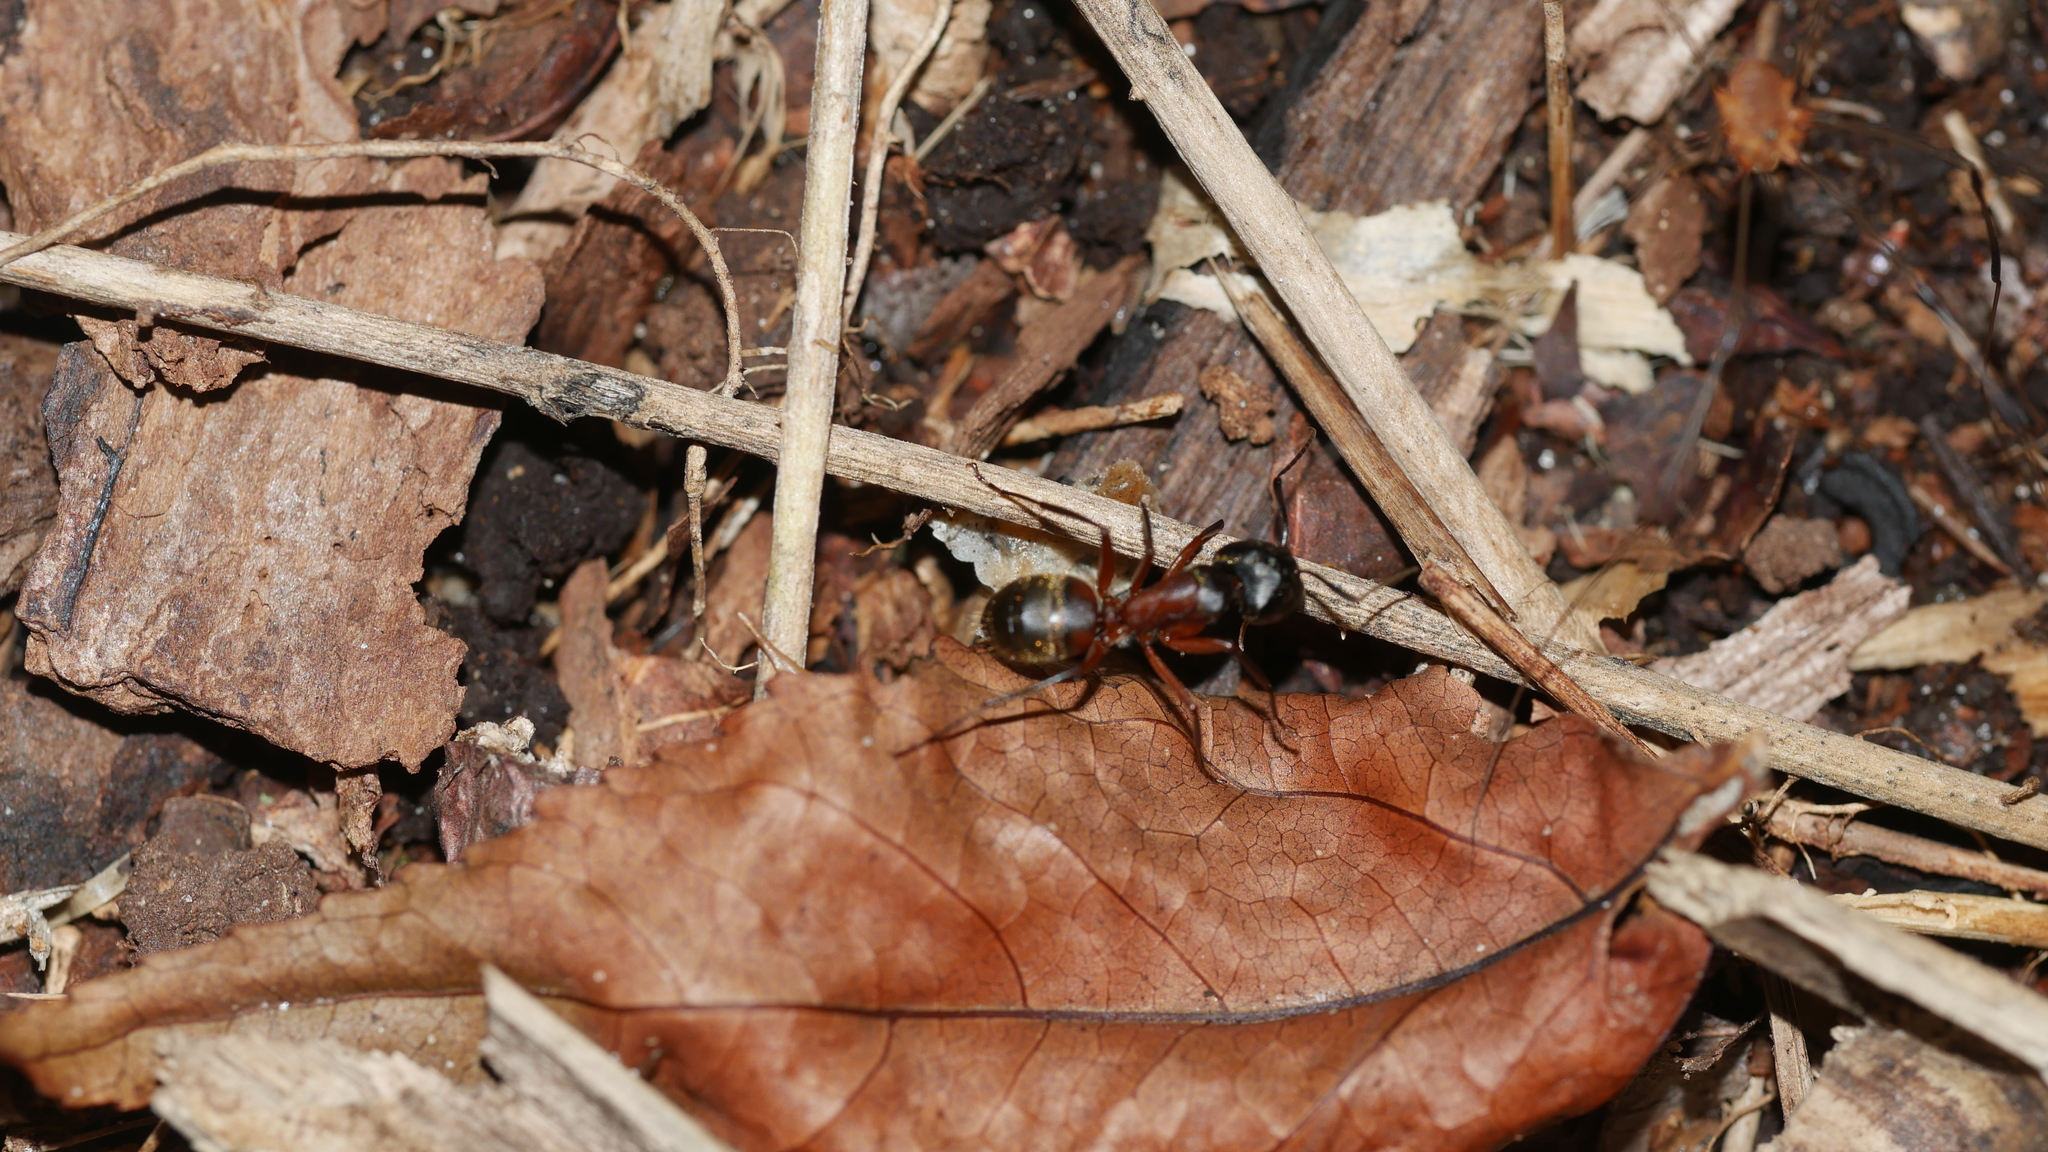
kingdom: Animalia
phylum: Arthropoda
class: Insecta
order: Hymenoptera
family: Formicidae
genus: Camponotus
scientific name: Camponotus chromaiodes
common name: Red carpenter ant
